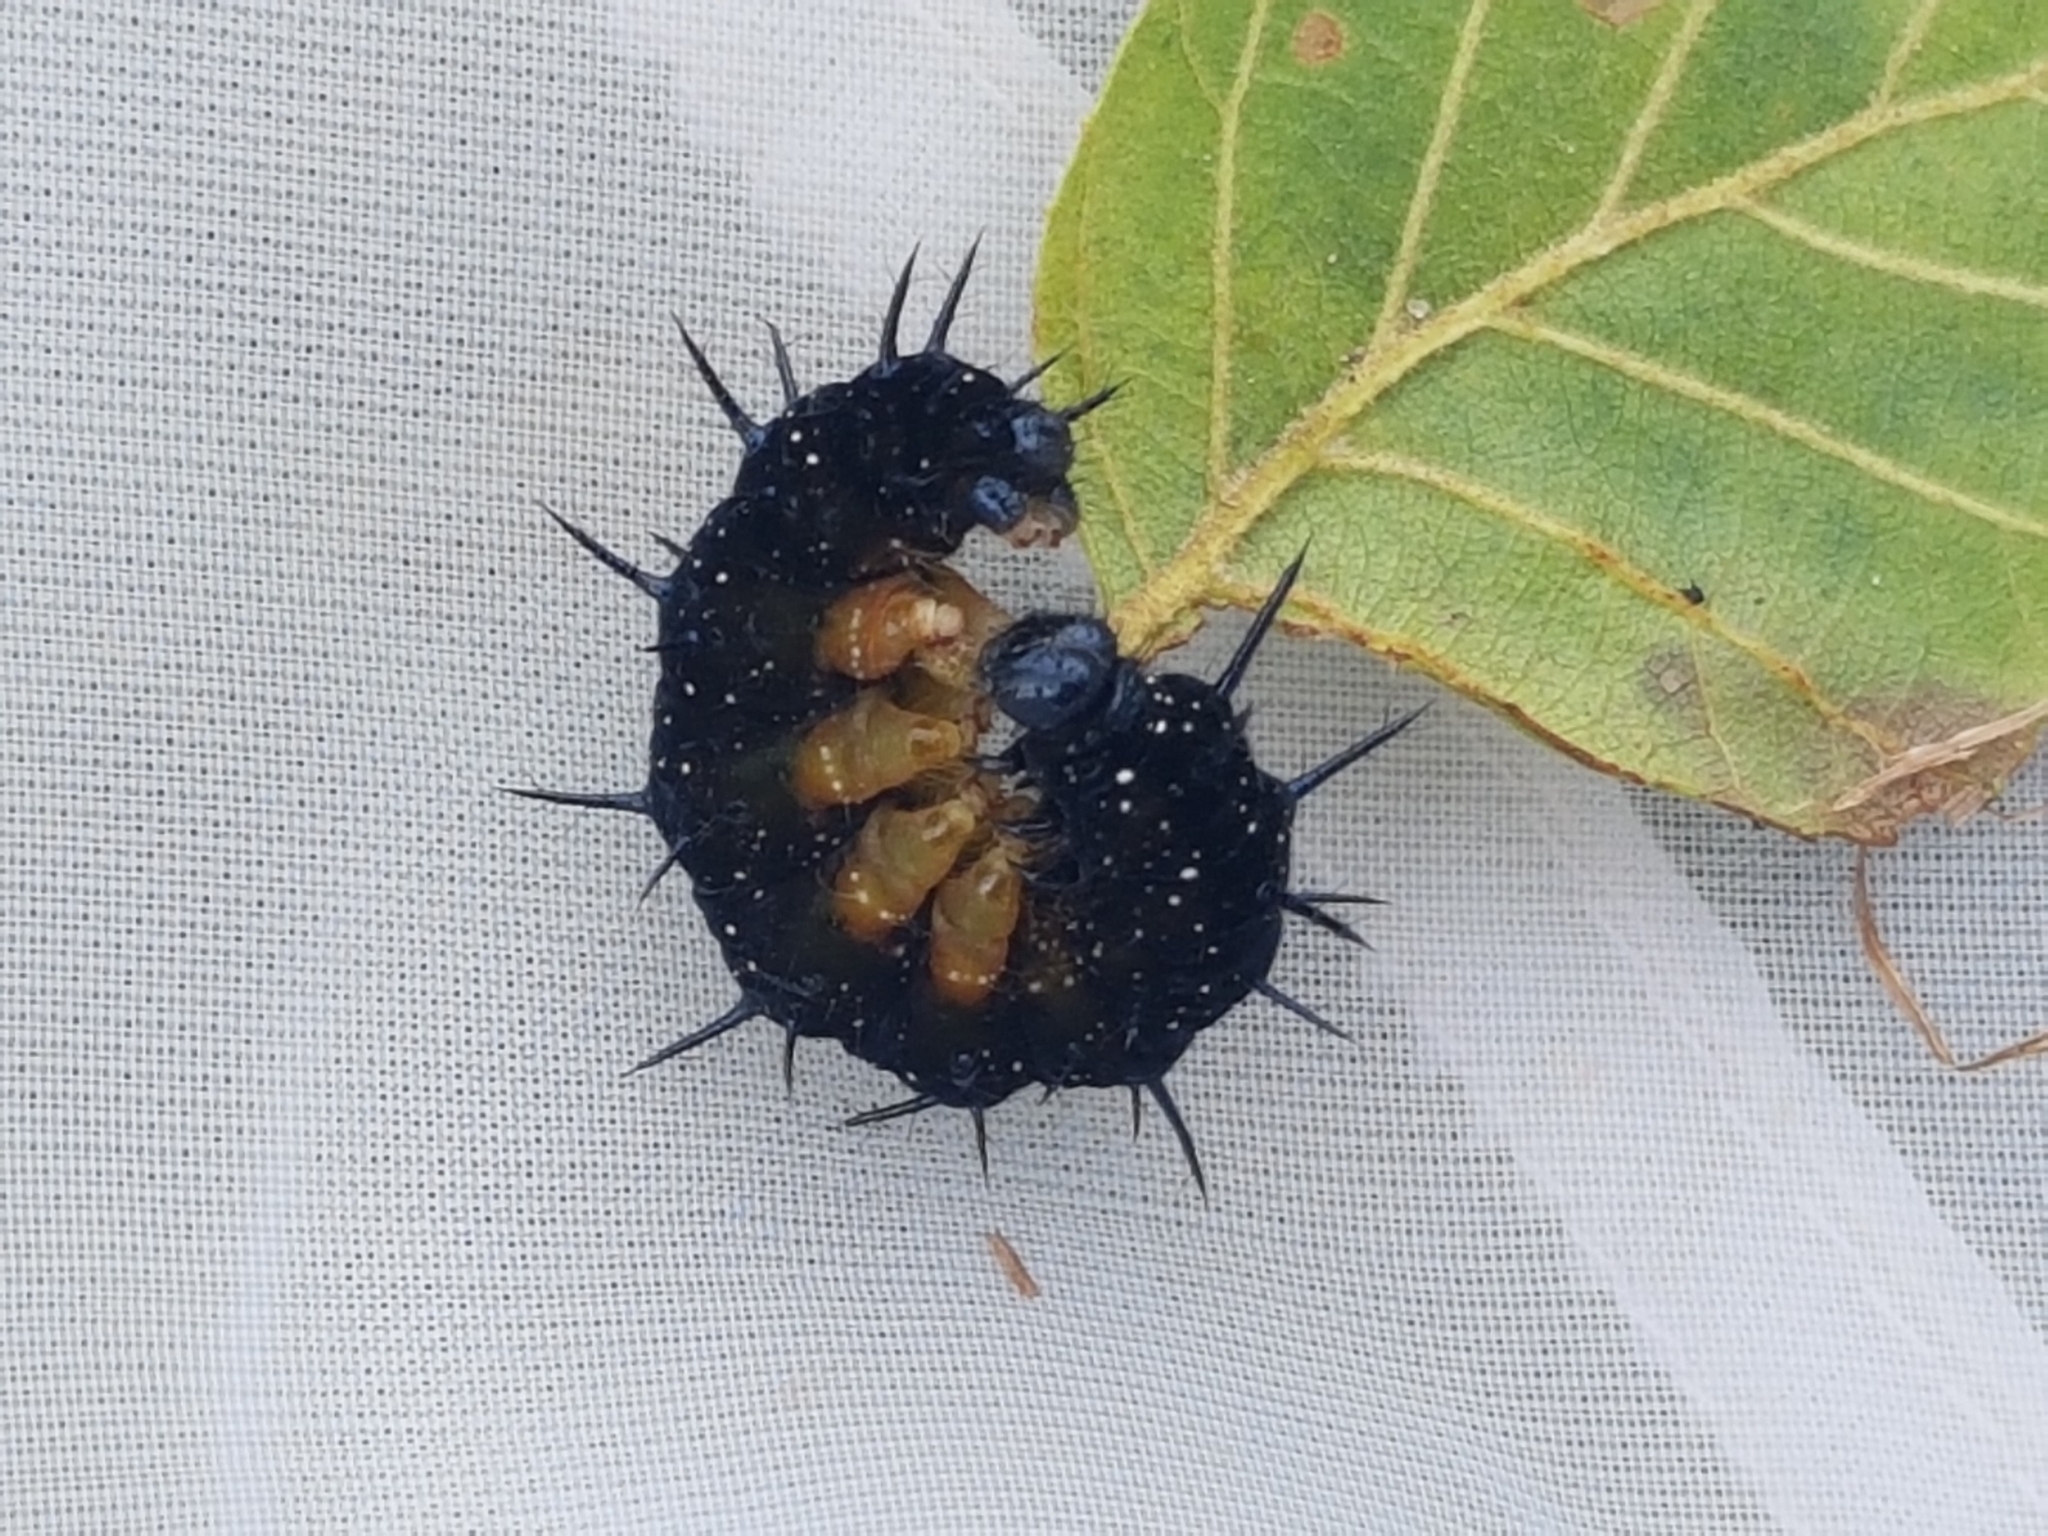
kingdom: Animalia
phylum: Arthropoda
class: Insecta
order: Lepidoptera
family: Nymphalidae
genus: Aglais
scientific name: Aglais io
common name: Peacock
